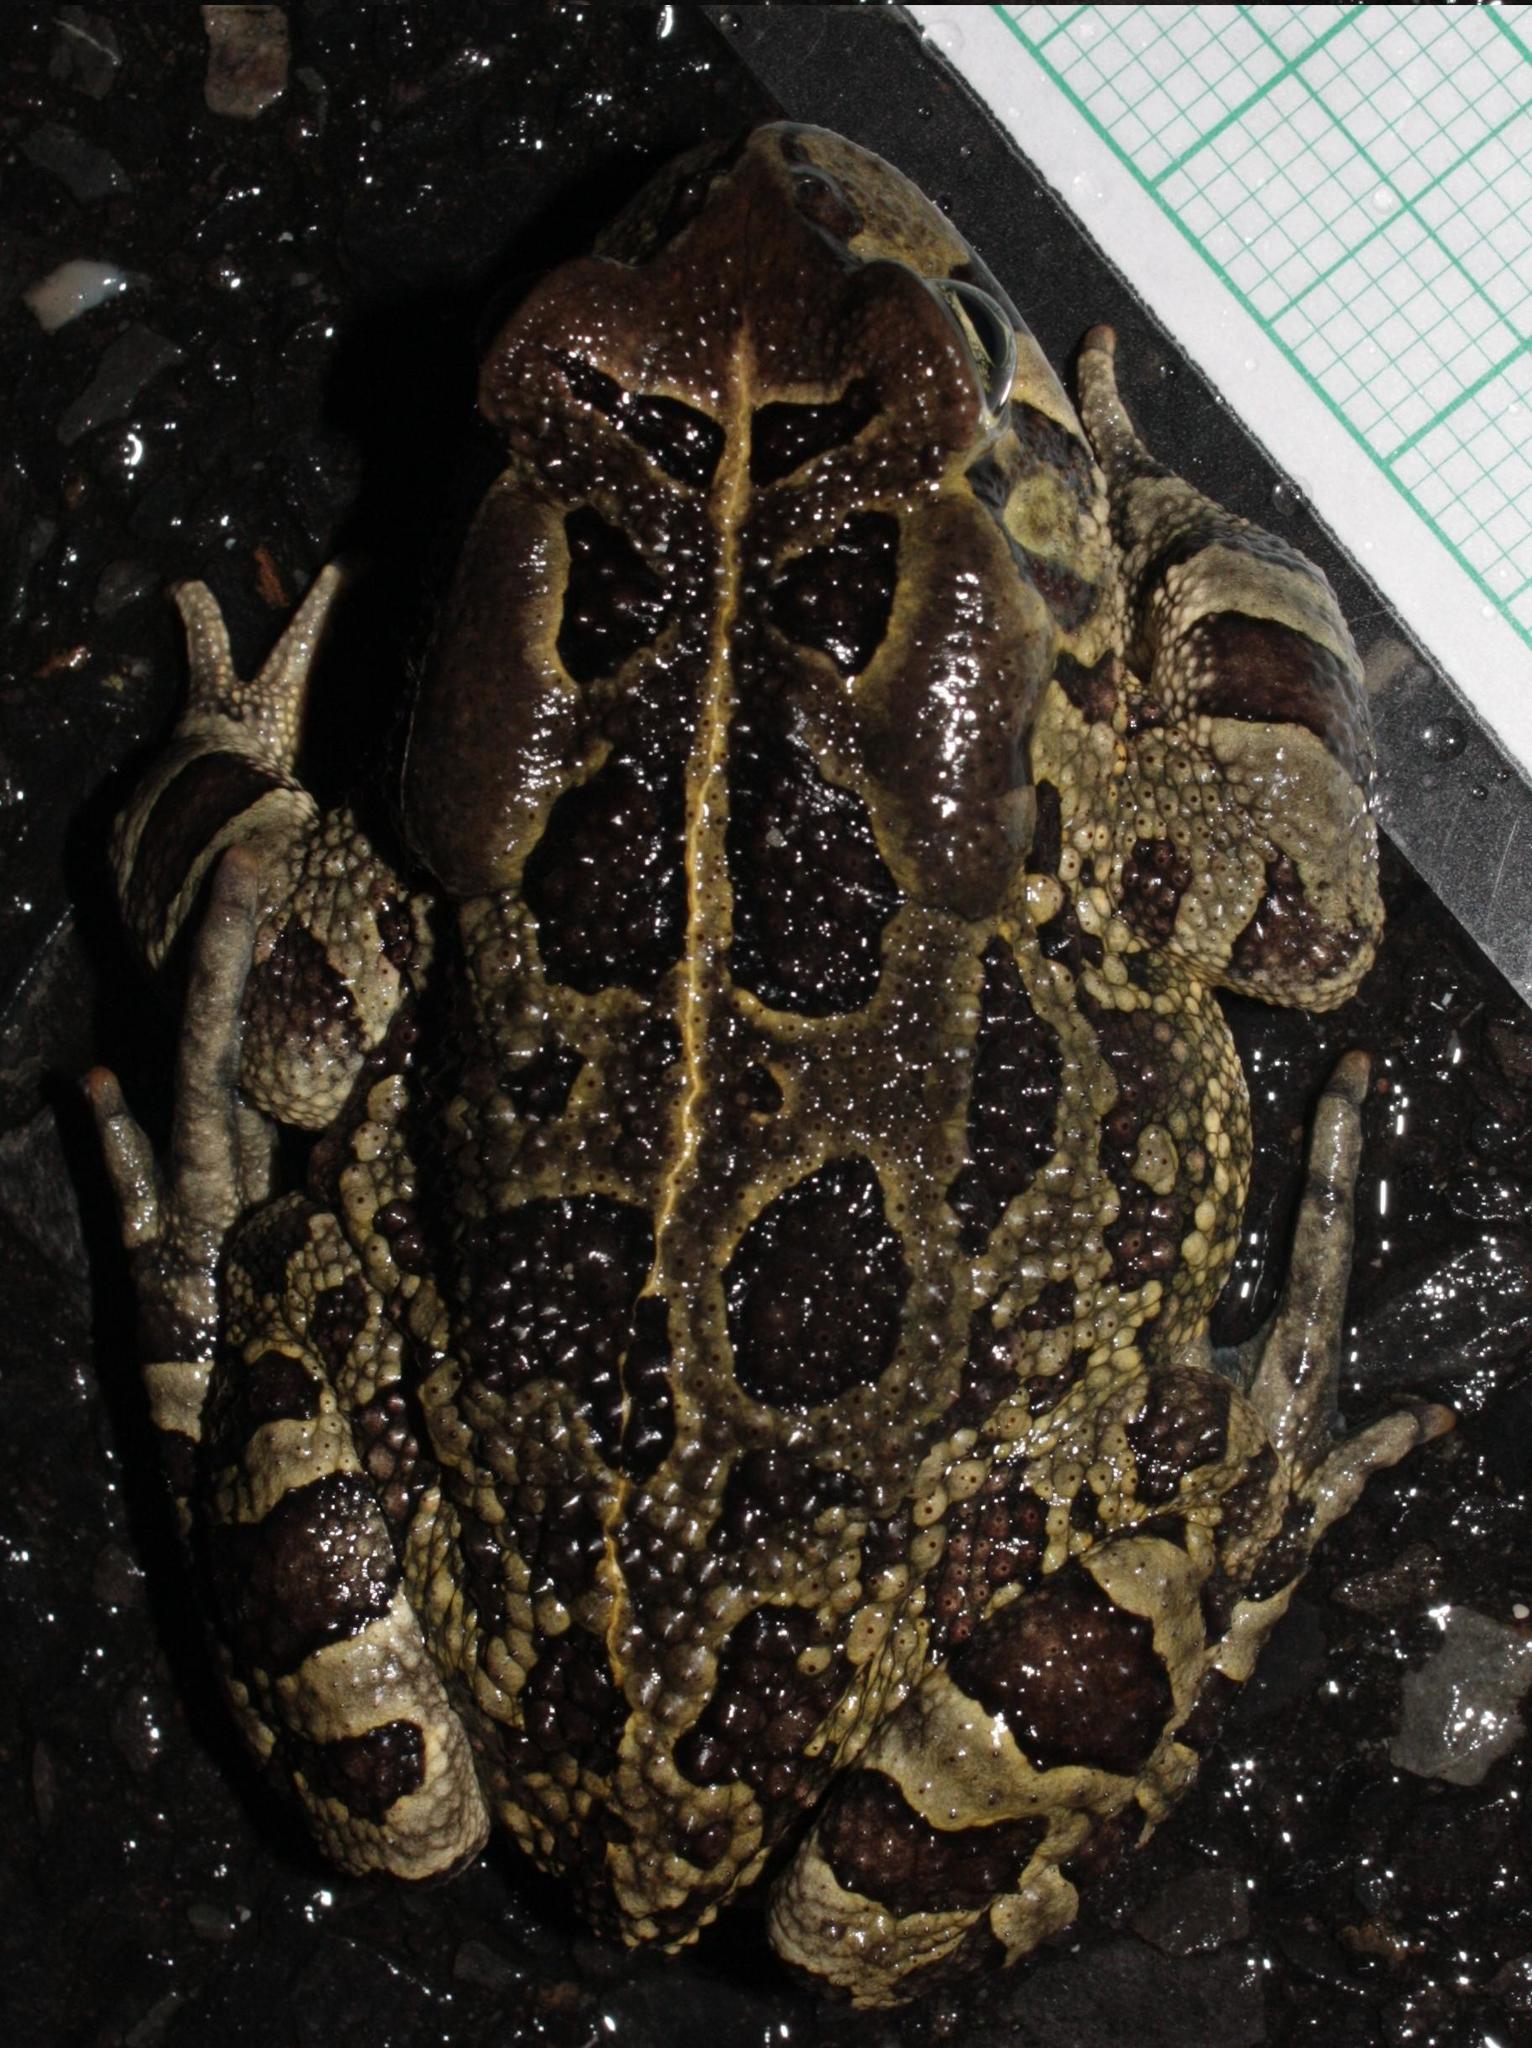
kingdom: Animalia
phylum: Chordata
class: Amphibia
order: Anura
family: Bufonidae
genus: Sclerophrys
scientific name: Sclerophrys pantherina
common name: Panther toad
